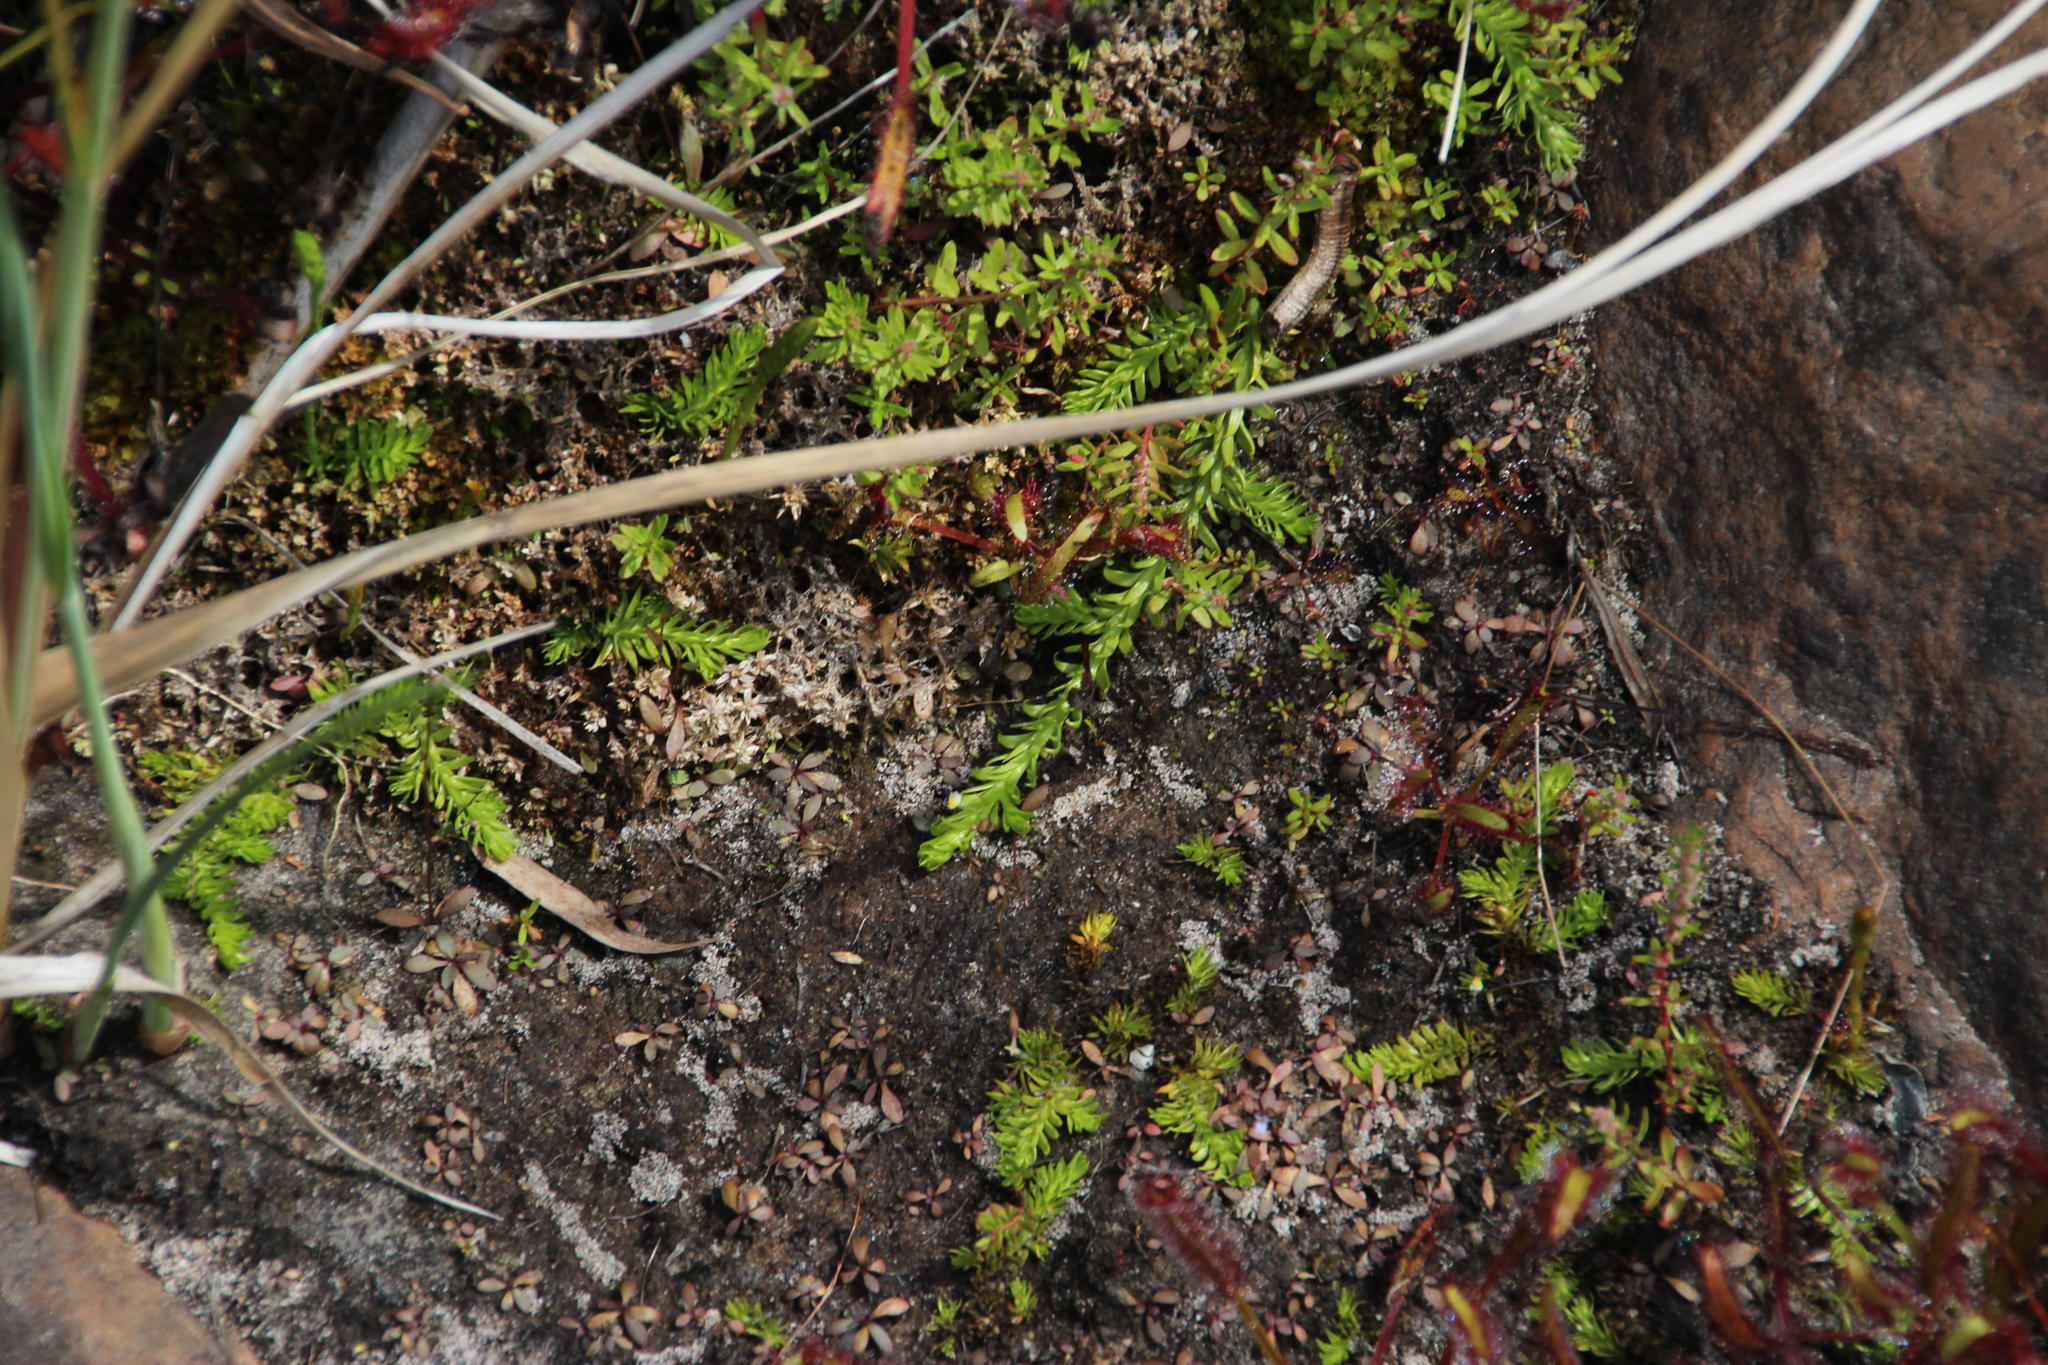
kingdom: Plantae
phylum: Tracheophyta
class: Lycopodiopsida
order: Lycopodiales
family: Lycopodiaceae
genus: Pseudolycopodiella
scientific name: Pseudolycopodiella caroliniana
